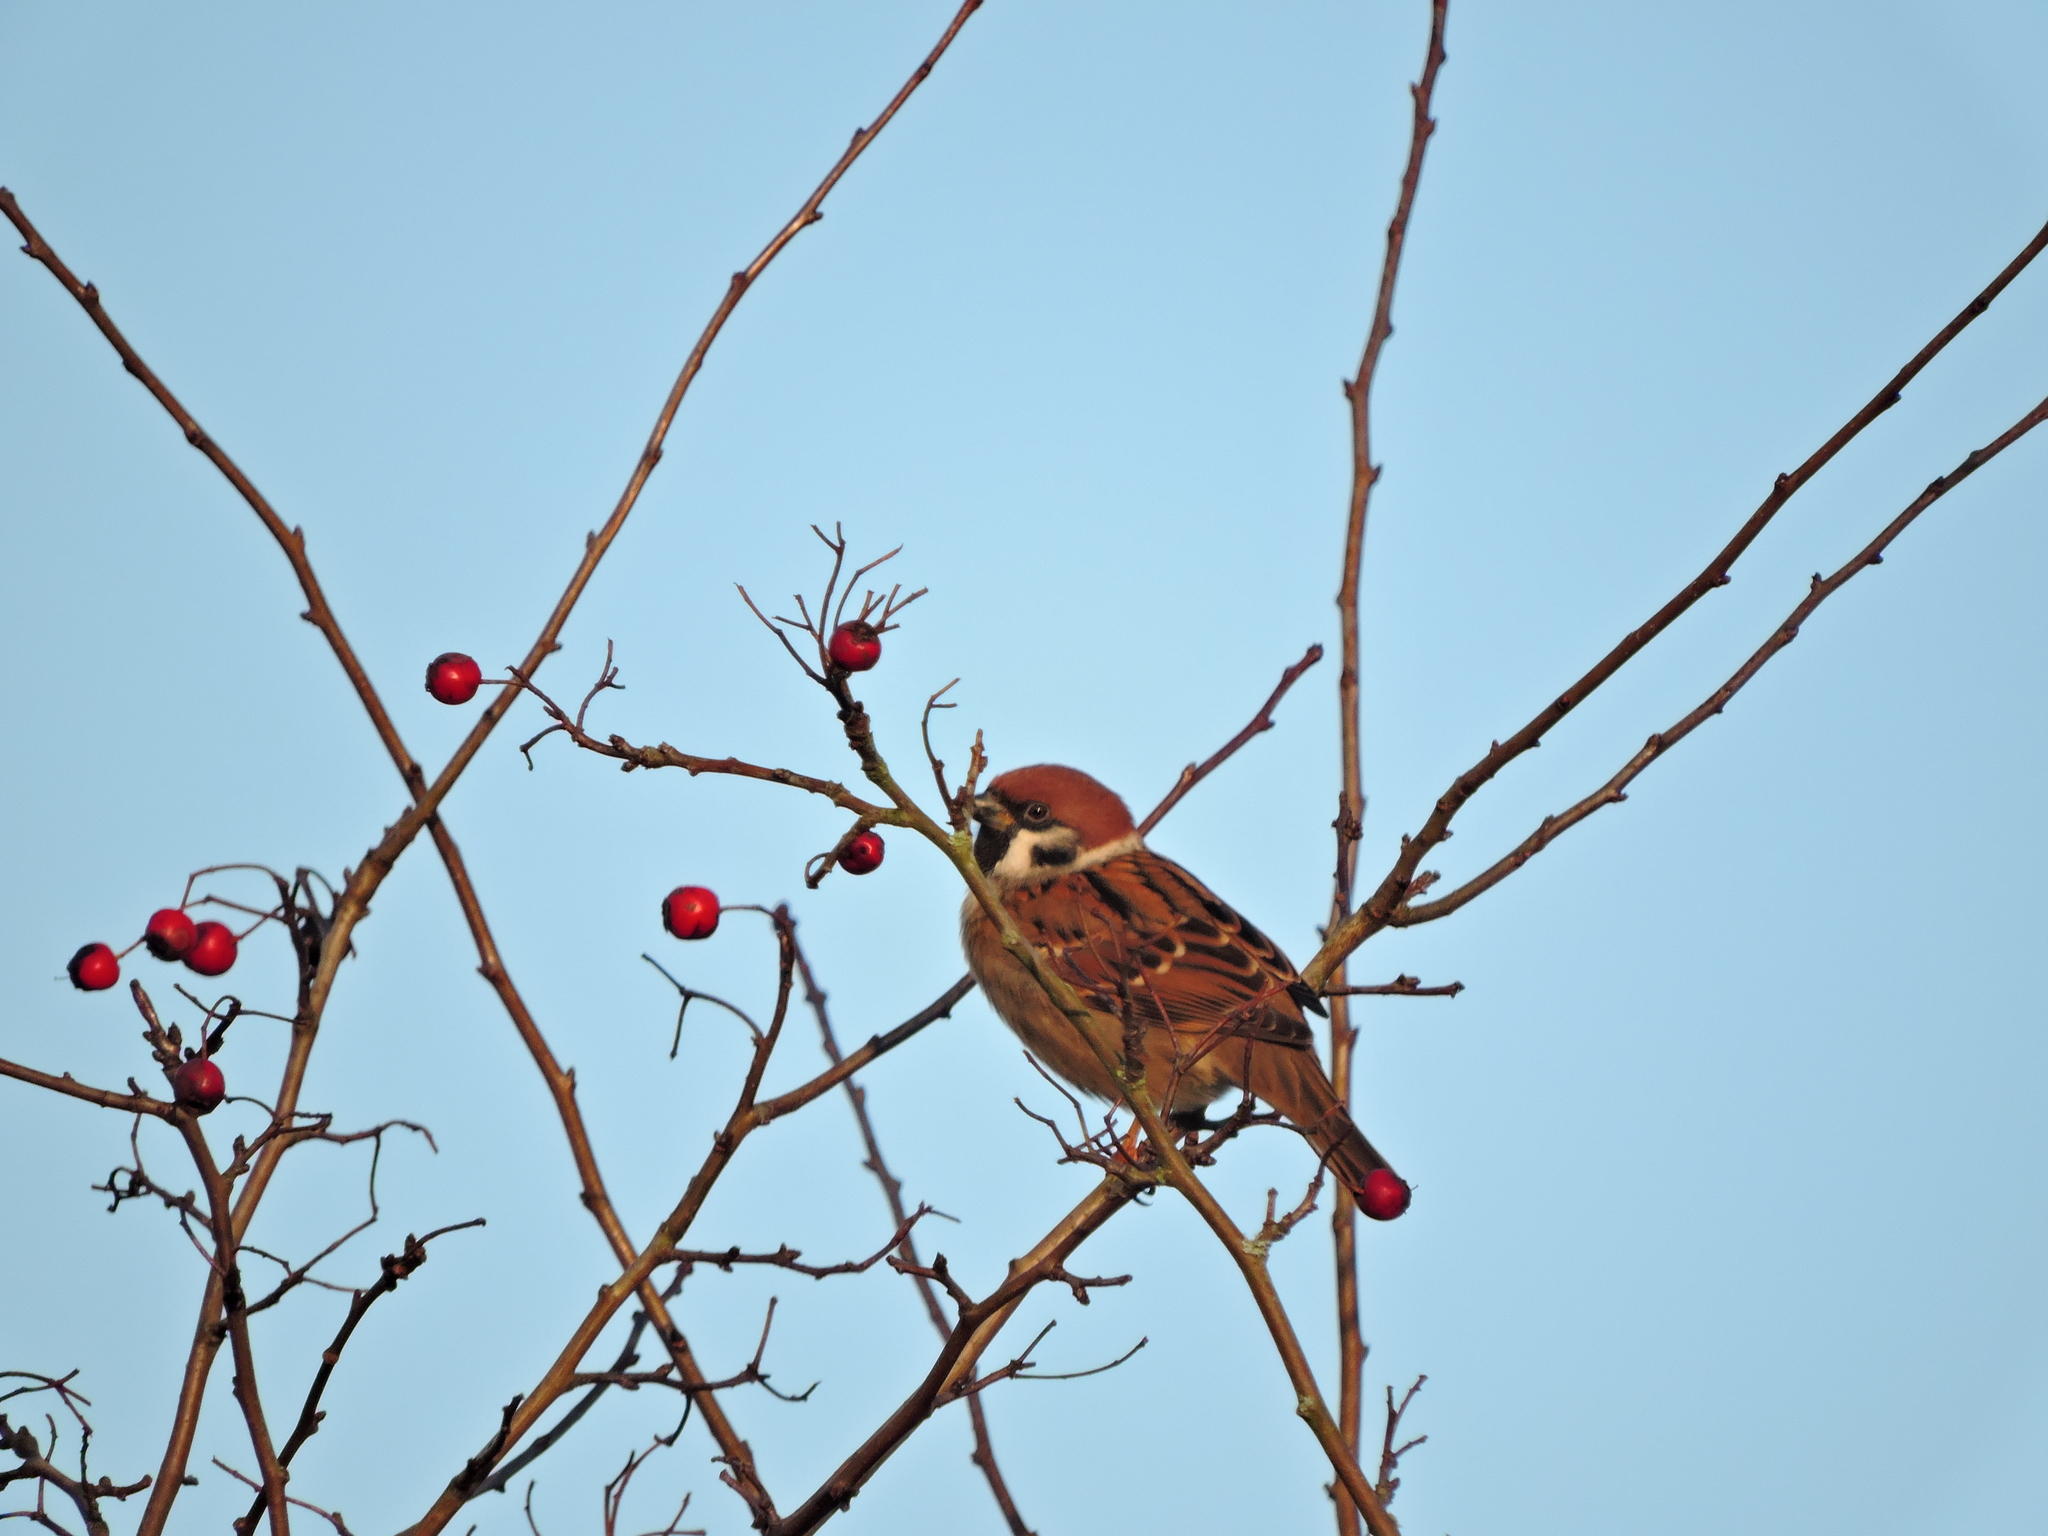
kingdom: Animalia
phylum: Chordata
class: Aves
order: Passeriformes
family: Passeridae
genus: Passer
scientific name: Passer montanus
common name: Eurasian tree sparrow
